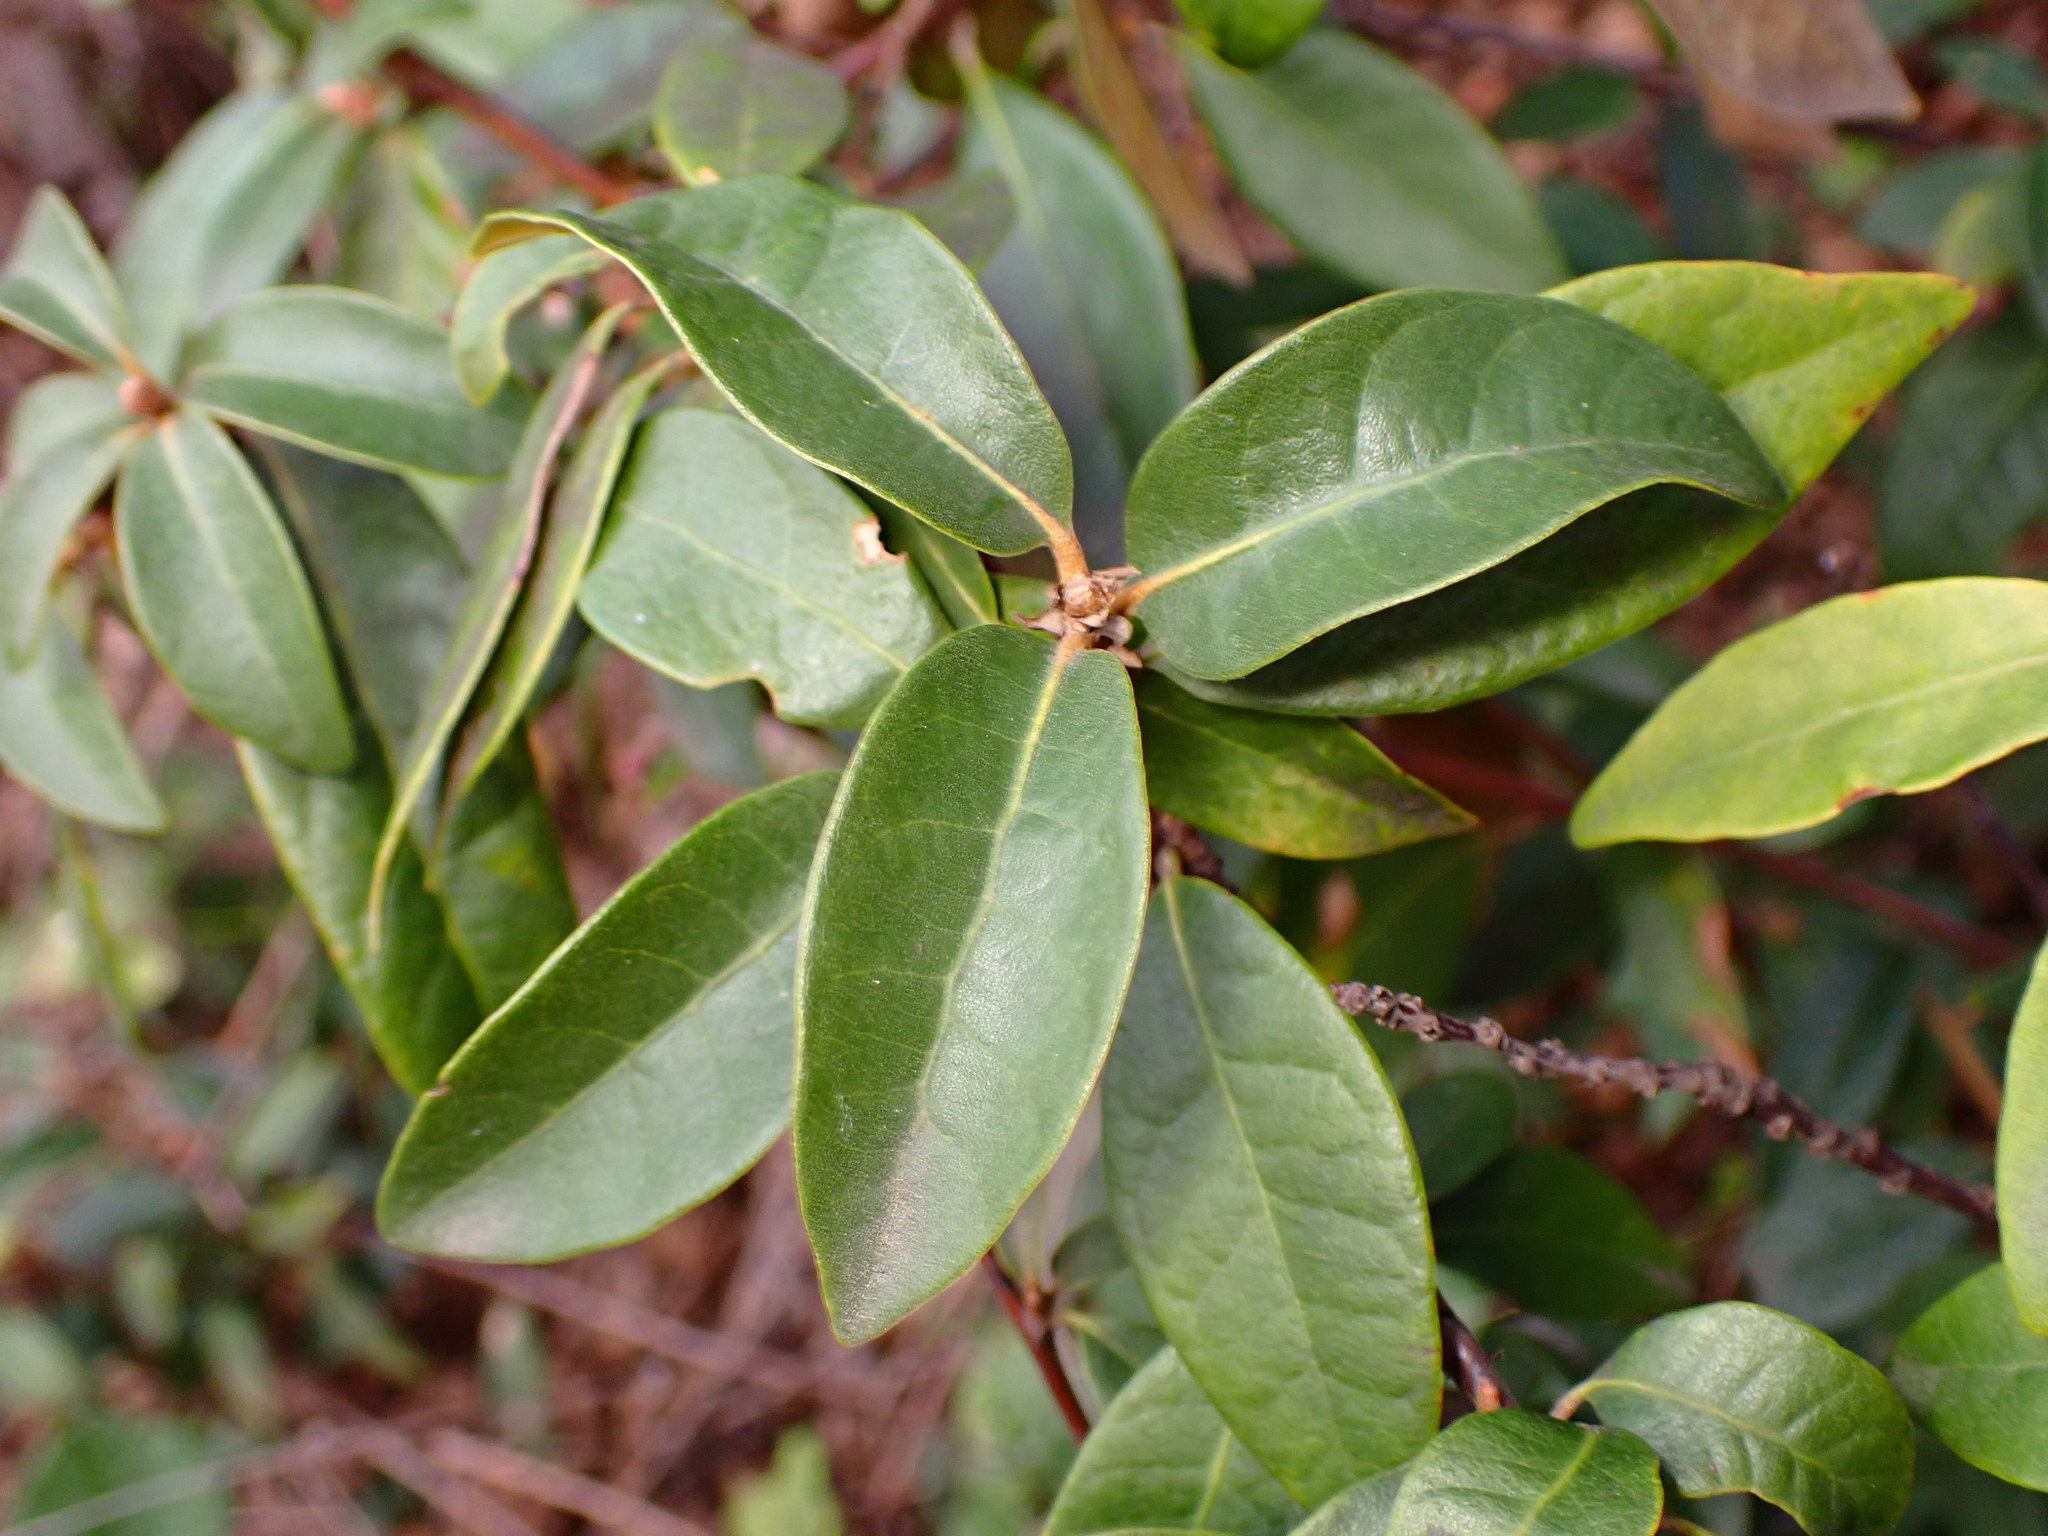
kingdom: Plantae
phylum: Tracheophyta
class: Magnoliopsida
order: Fagales
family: Fagaceae
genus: Chrysolepis
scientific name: Chrysolepis chrysophylla
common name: Giant chinquapin
